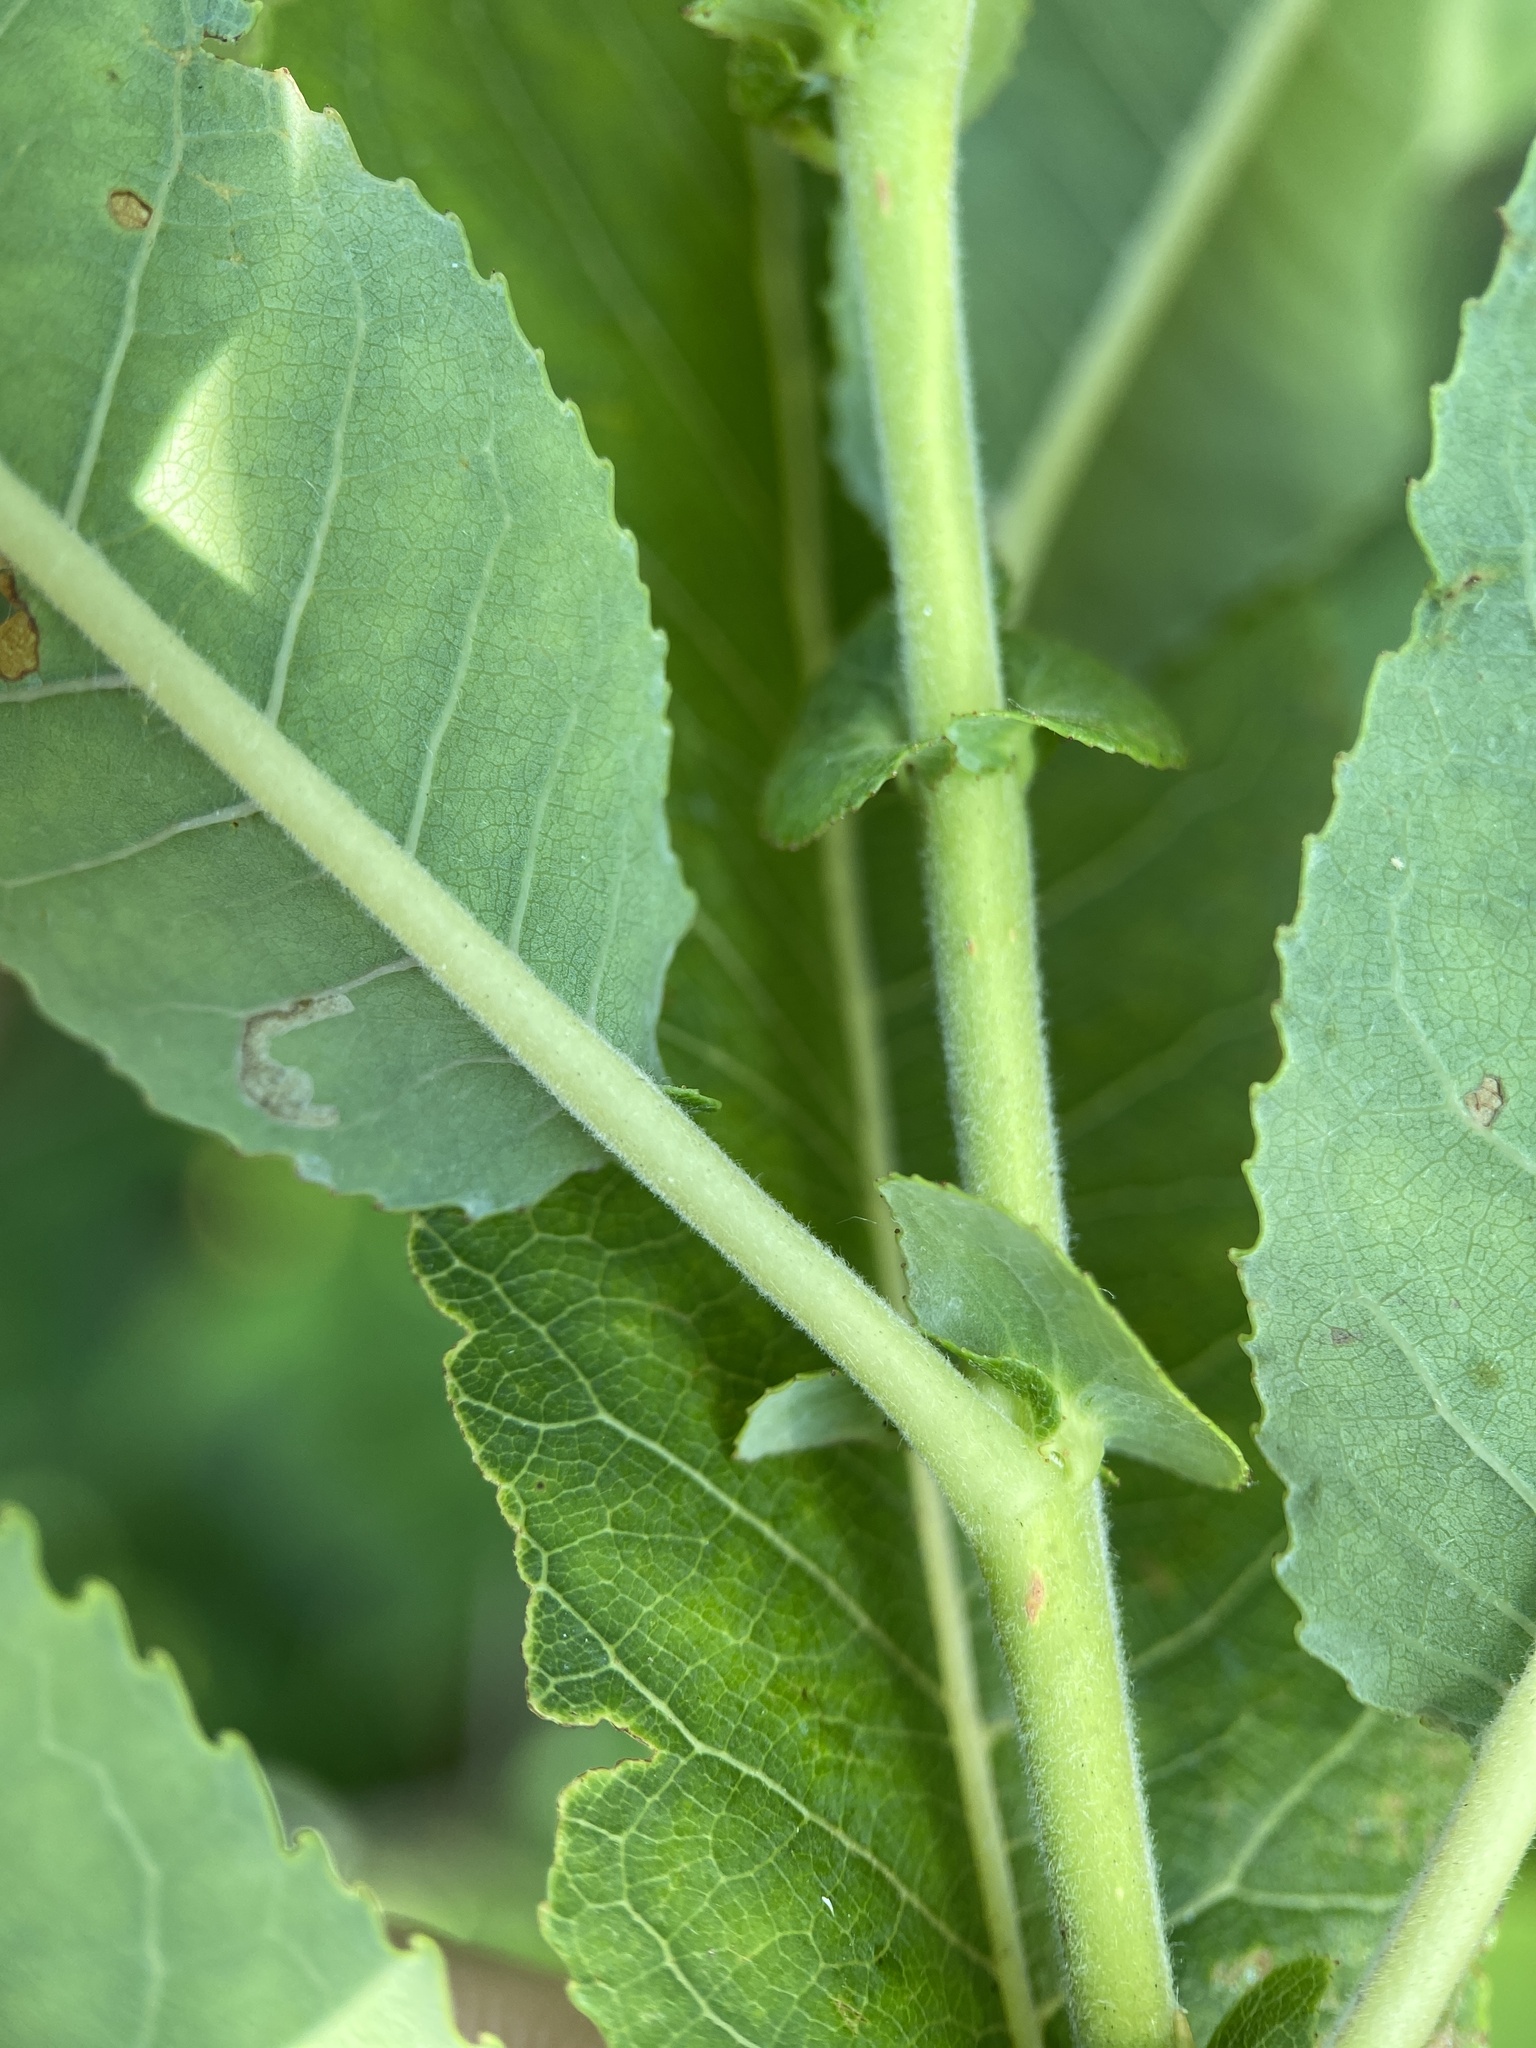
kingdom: Plantae
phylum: Tracheophyta
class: Magnoliopsida
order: Malpighiales
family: Salicaceae
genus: Salix
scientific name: Salix eriocephala
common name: Heart-leaved willow
